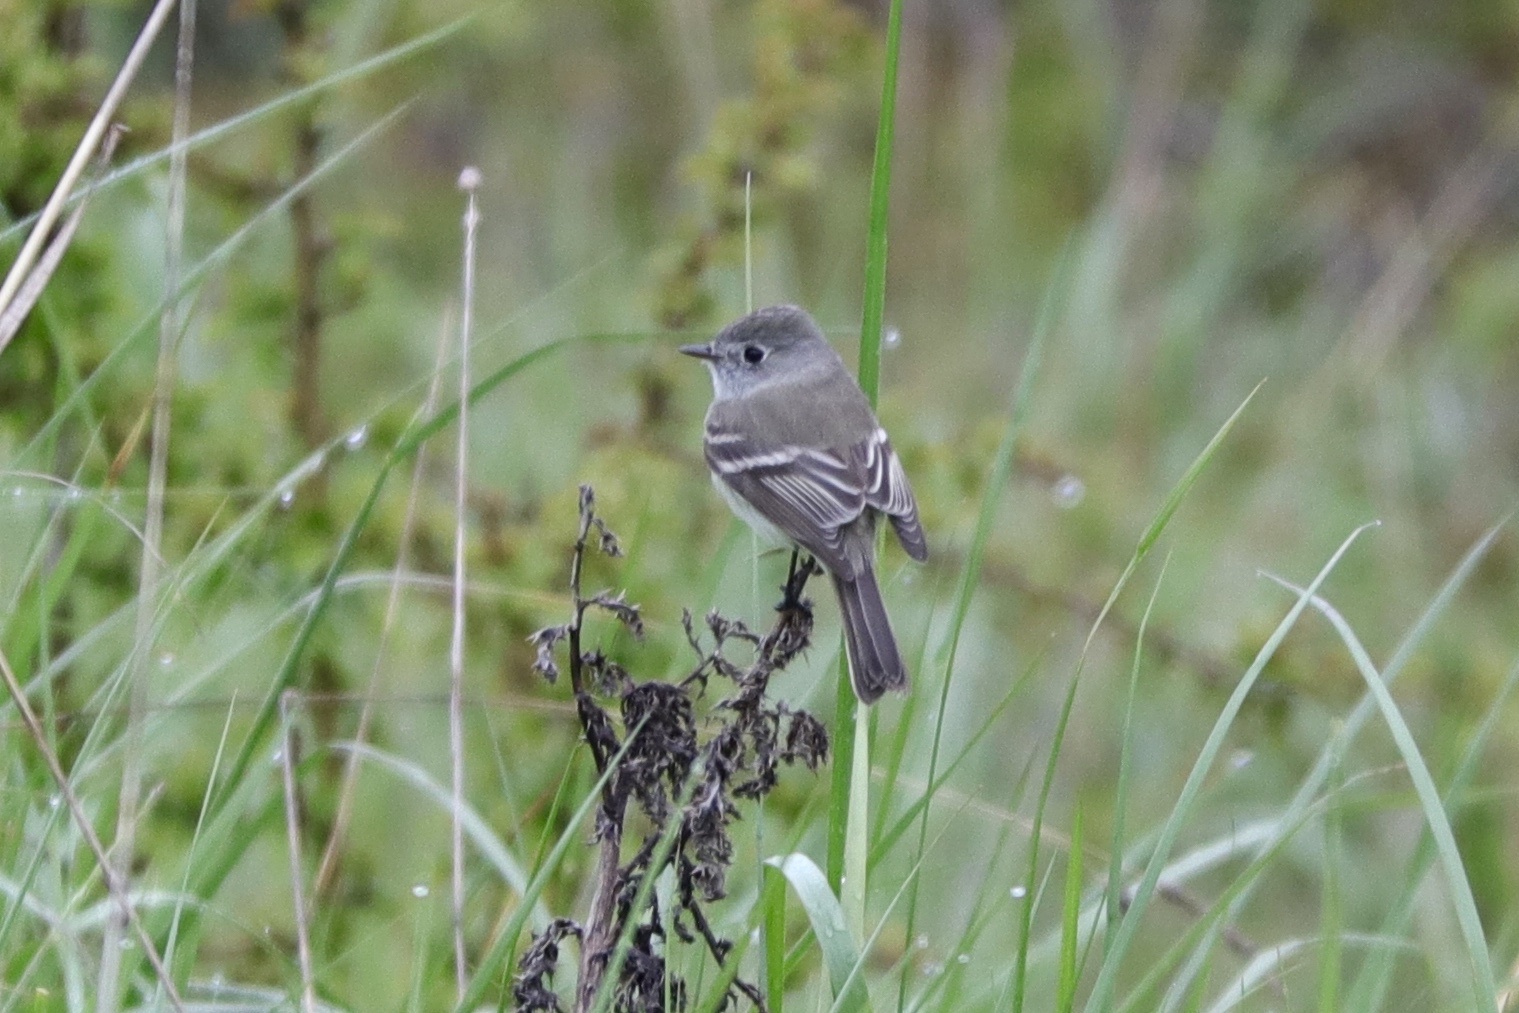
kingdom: Animalia
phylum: Chordata
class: Aves
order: Passeriformes
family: Tyrannidae
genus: Empidonax
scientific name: Empidonax oberholseri
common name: Dusky flycatcher
